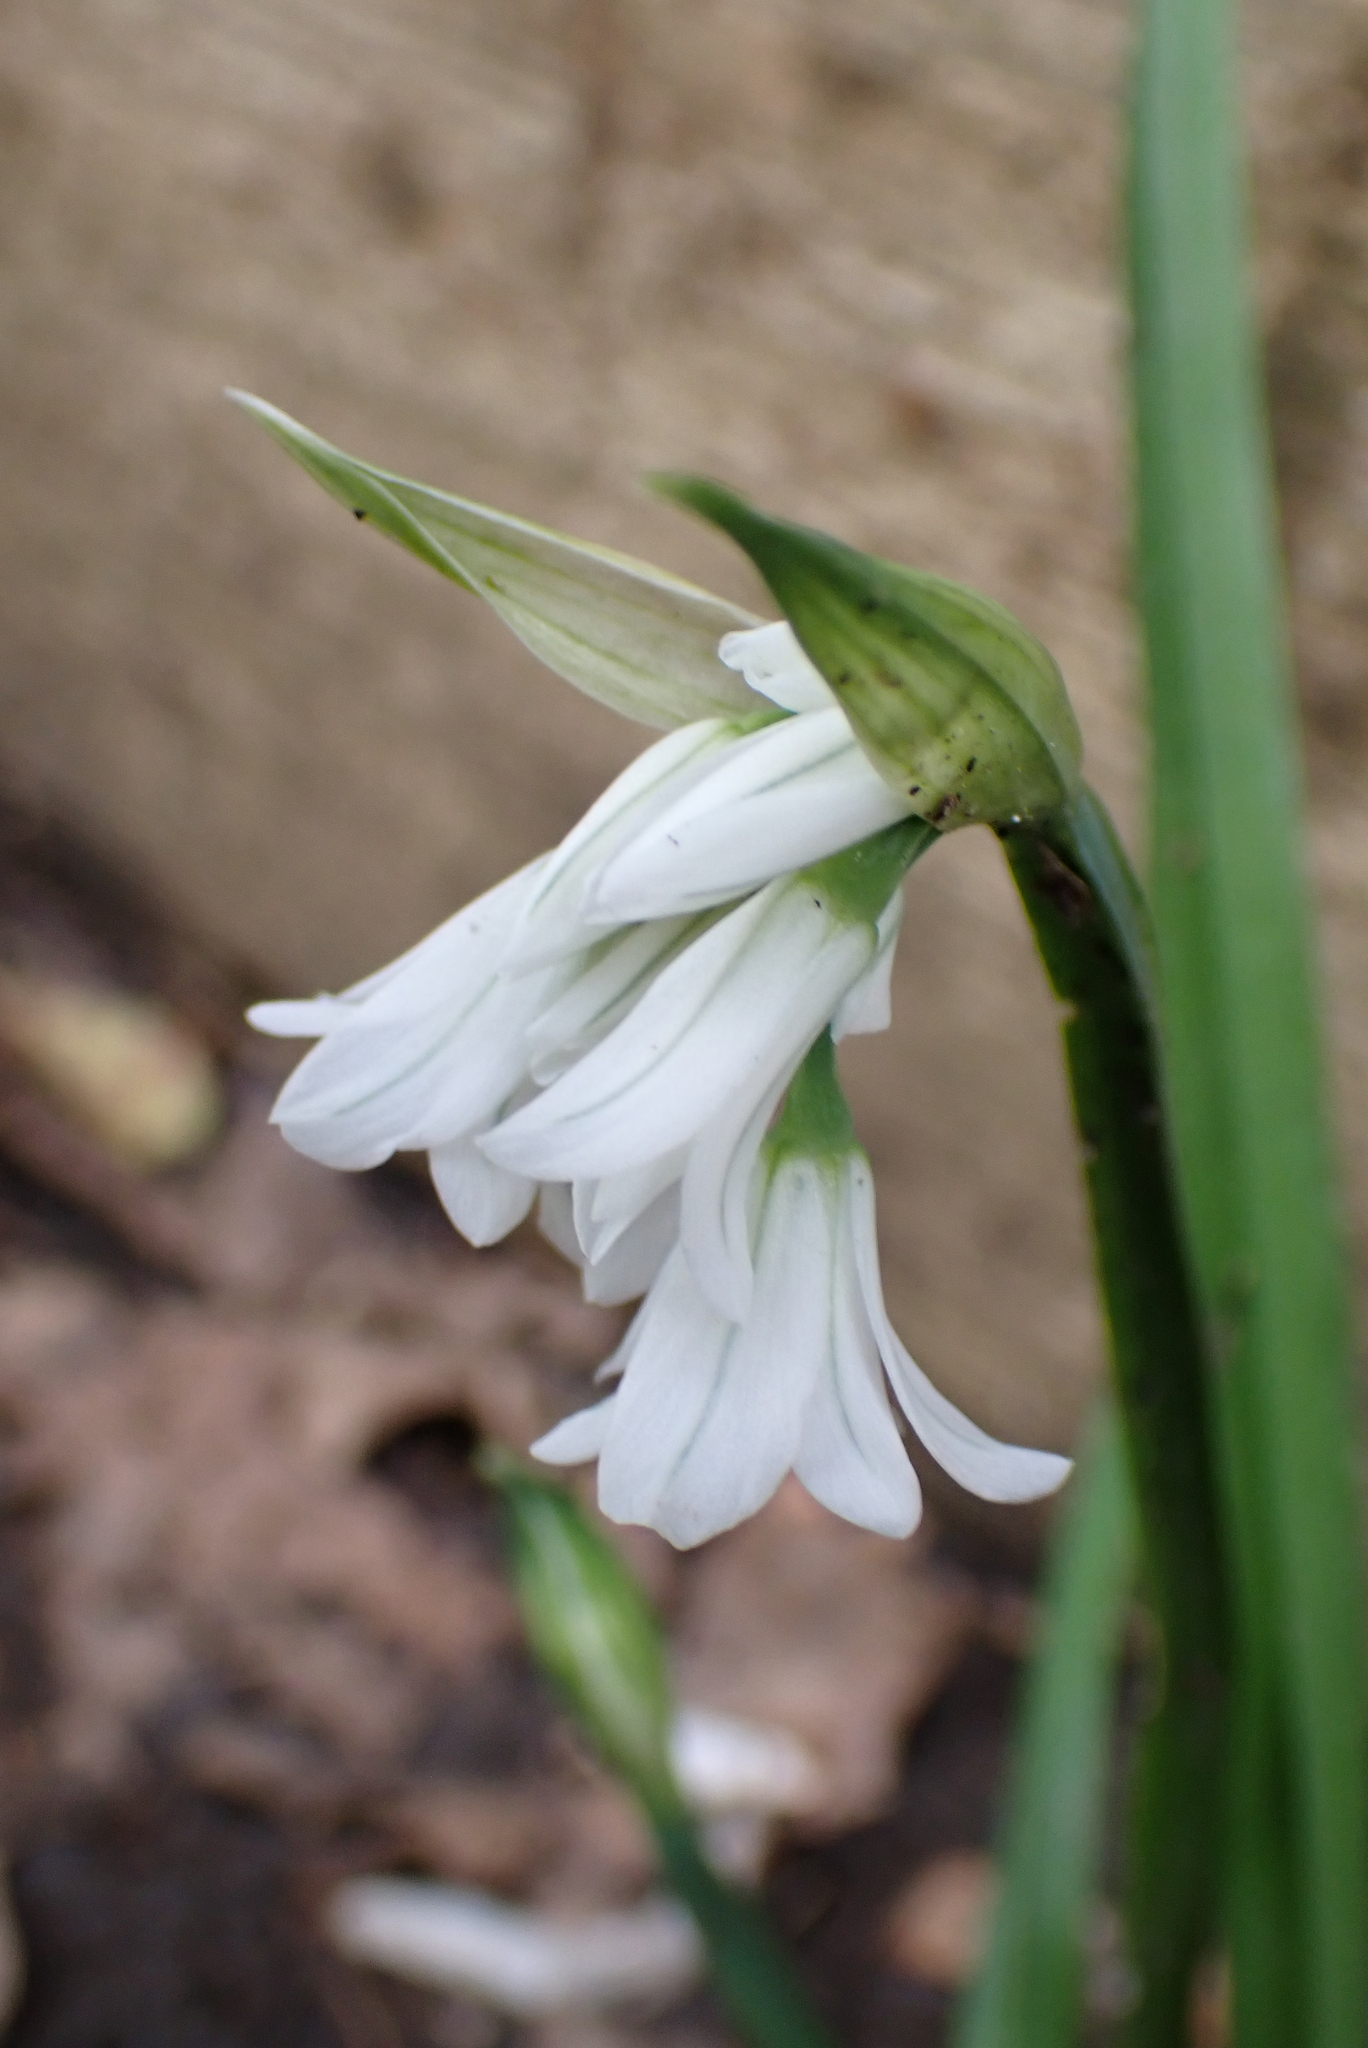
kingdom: Plantae
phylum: Tracheophyta
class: Liliopsida
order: Asparagales
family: Amaryllidaceae
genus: Allium
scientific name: Allium triquetrum
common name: Three-cornered garlic
